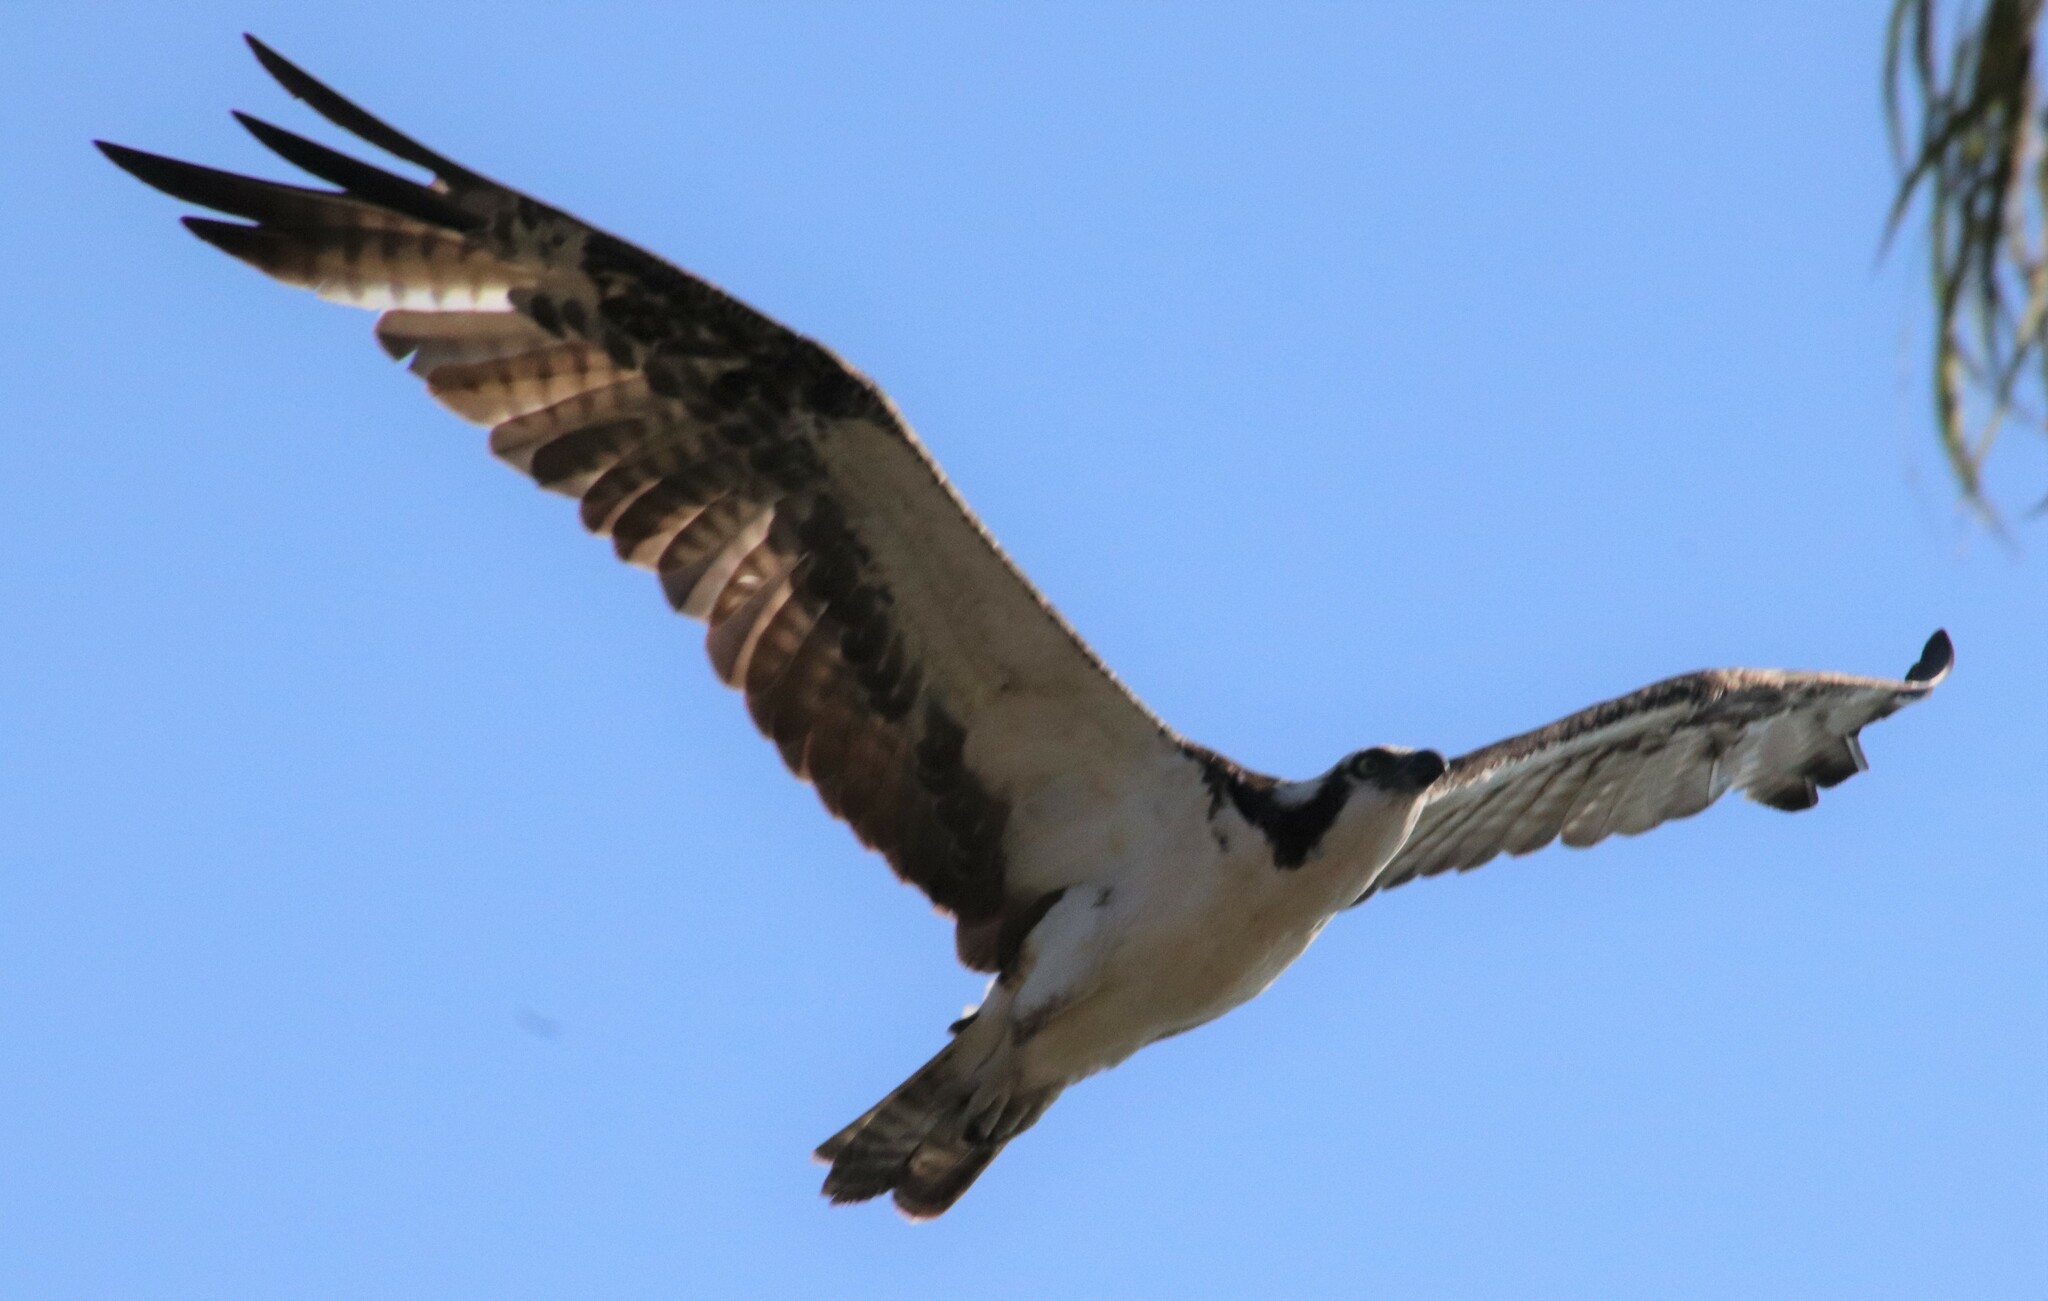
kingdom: Animalia
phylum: Chordata
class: Aves
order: Accipitriformes
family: Pandionidae
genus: Pandion
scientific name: Pandion haliaetus
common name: Osprey
